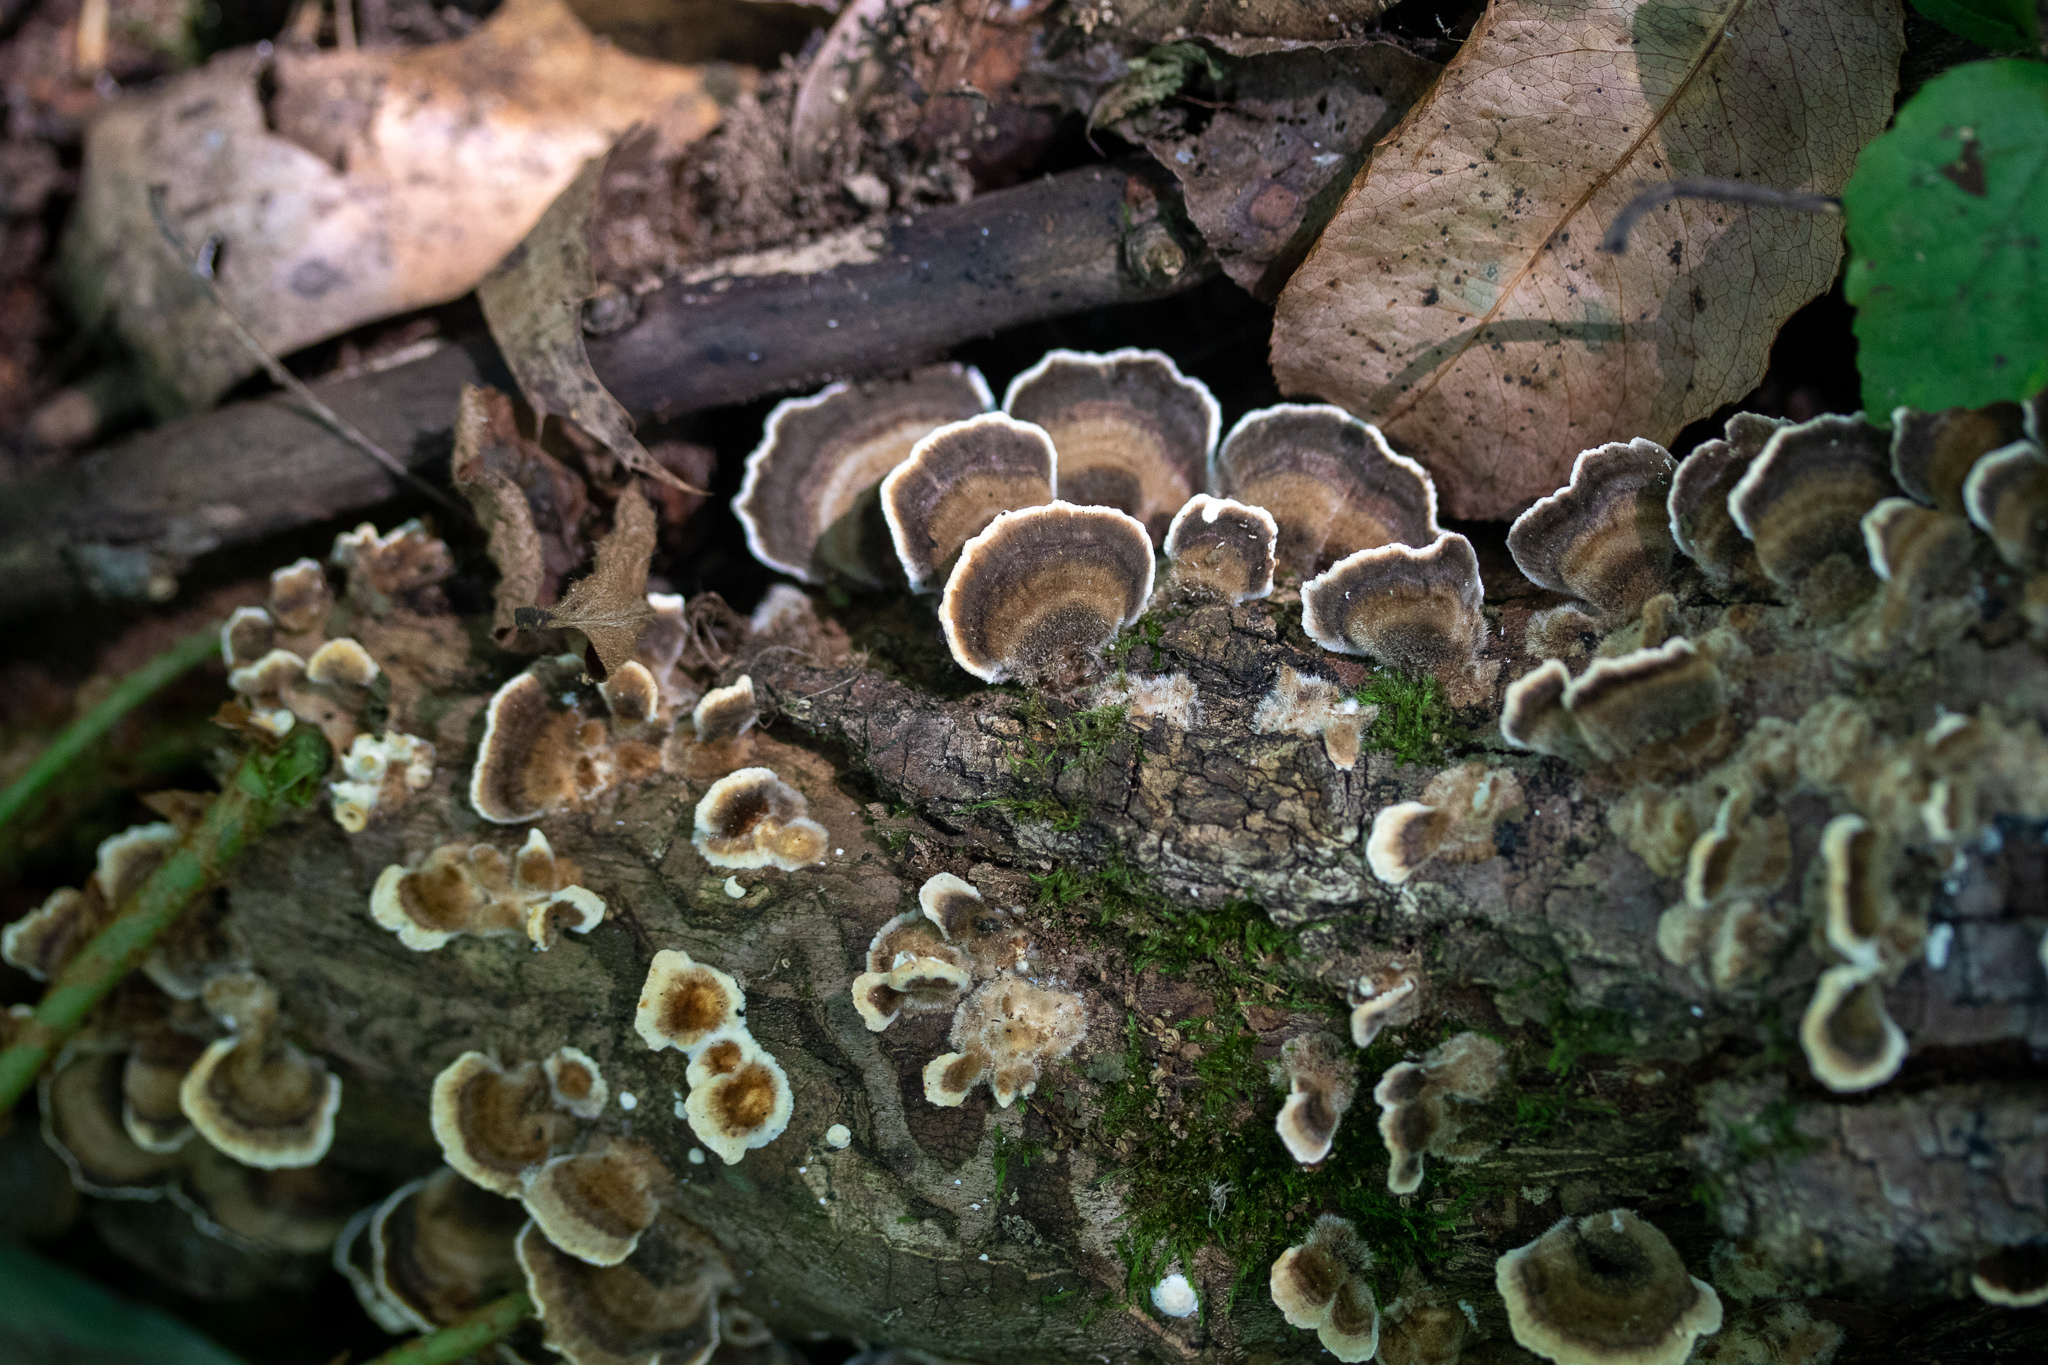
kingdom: Fungi
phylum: Basidiomycota
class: Agaricomycetes
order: Polyporales
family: Polyporaceae
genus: Trametes
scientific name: Trametes versicolor
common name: Turkeytail
